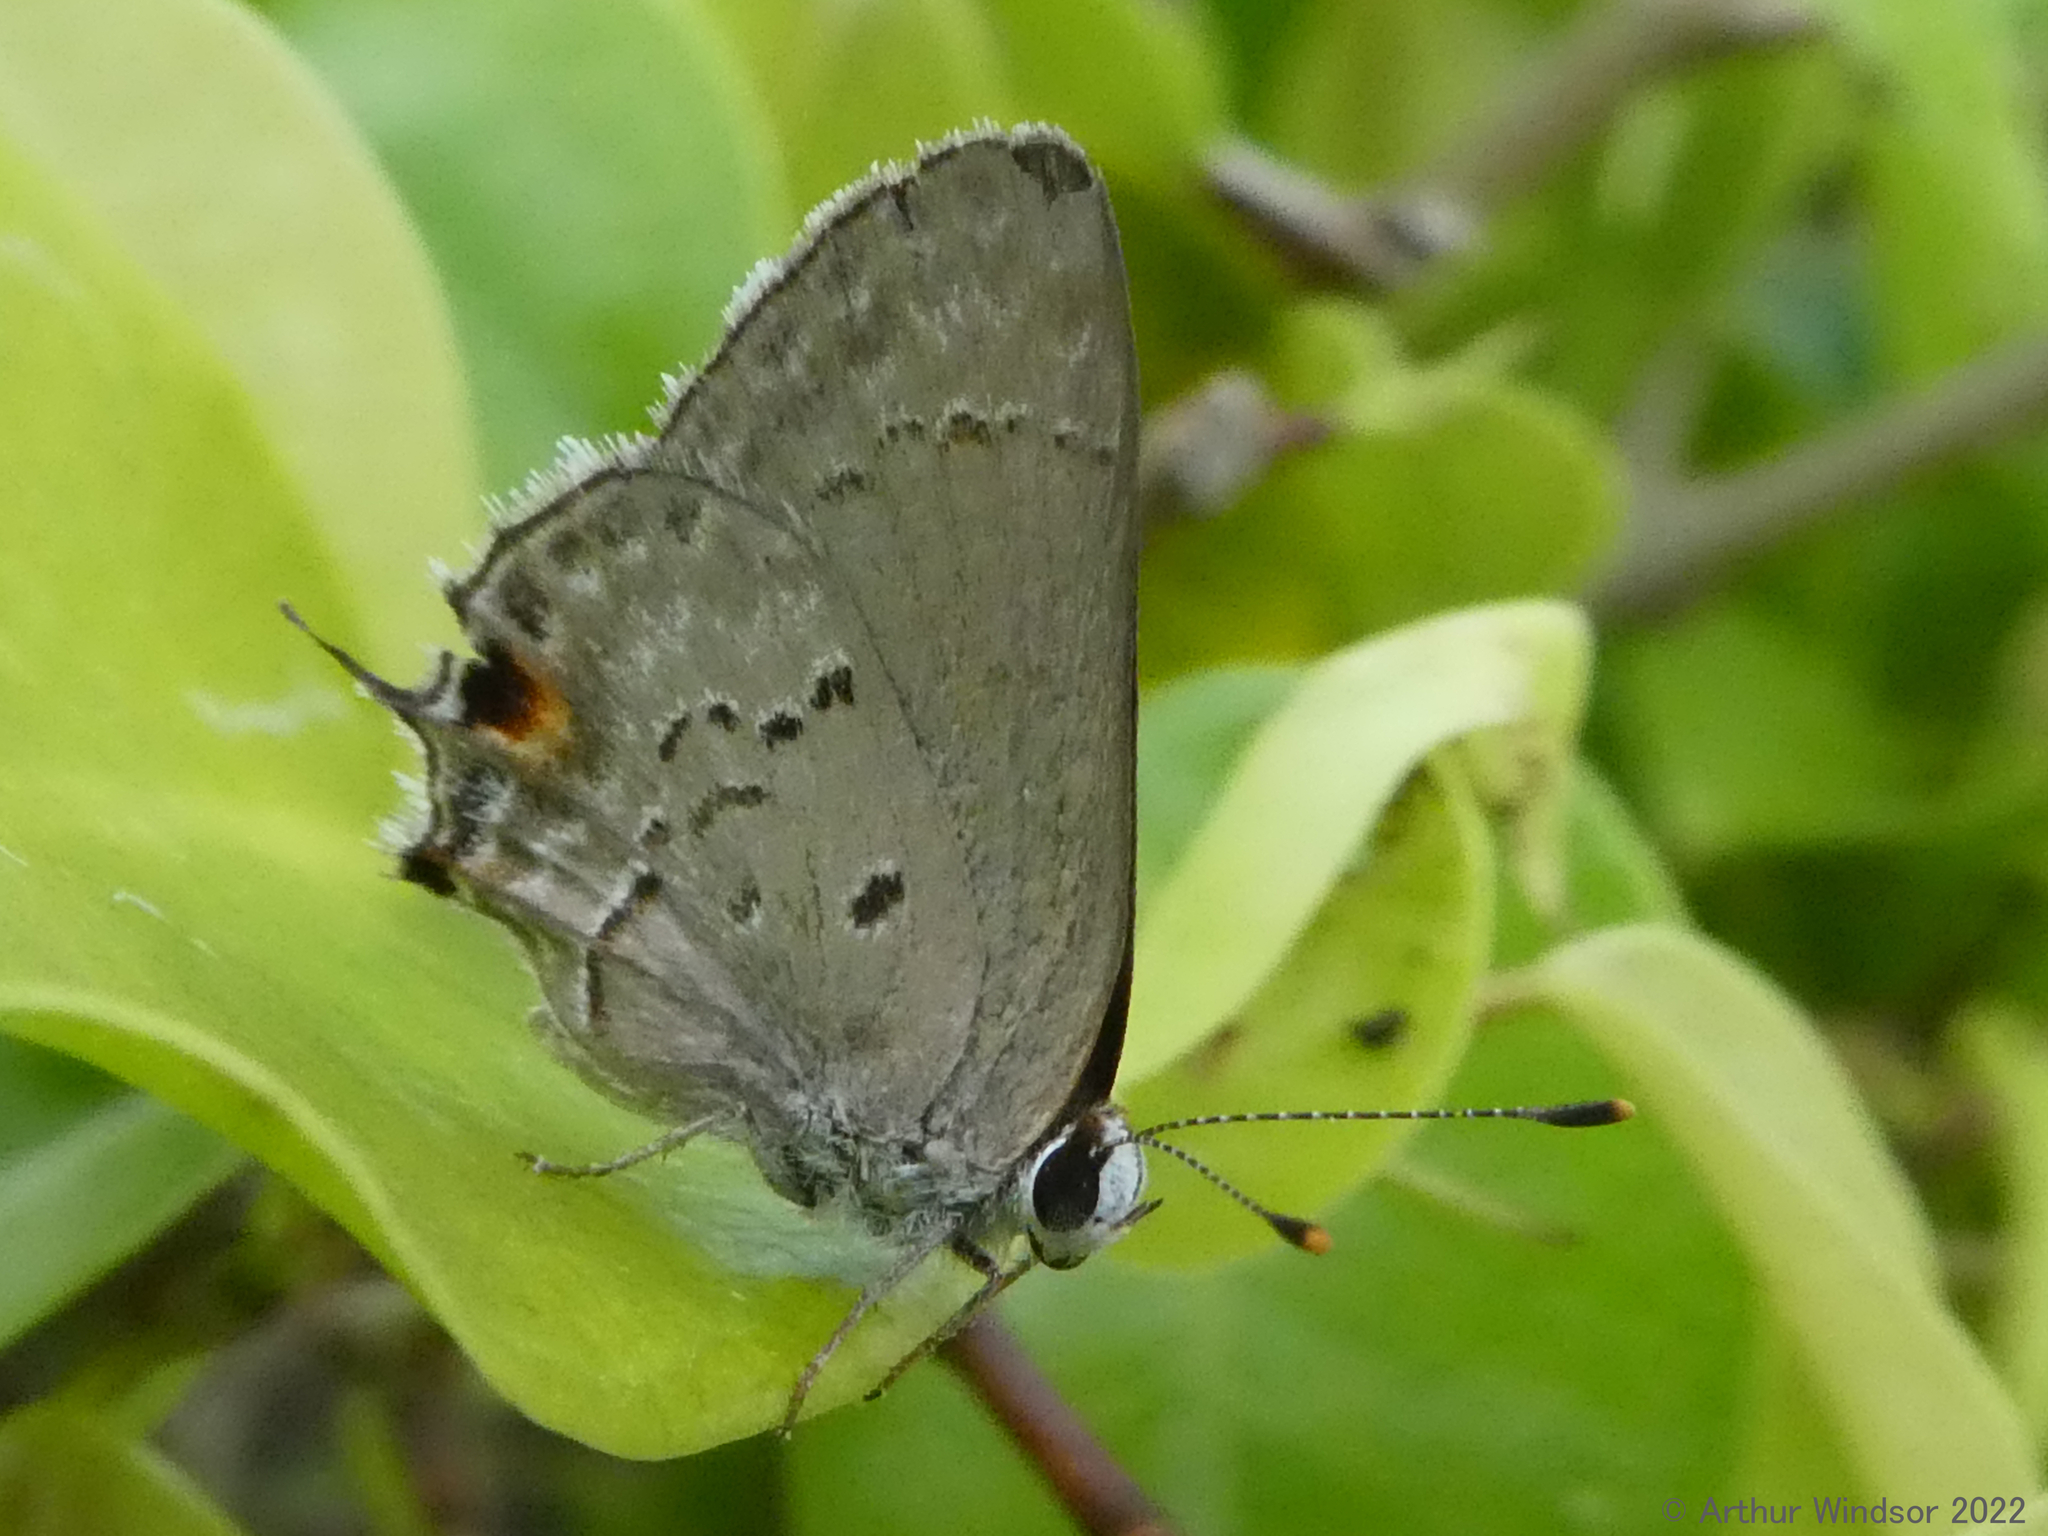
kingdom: Animalia
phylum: Arthropoda
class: Insecta
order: Lepidoptera
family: Lycaenidae
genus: Callicista
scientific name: Callicista columella
